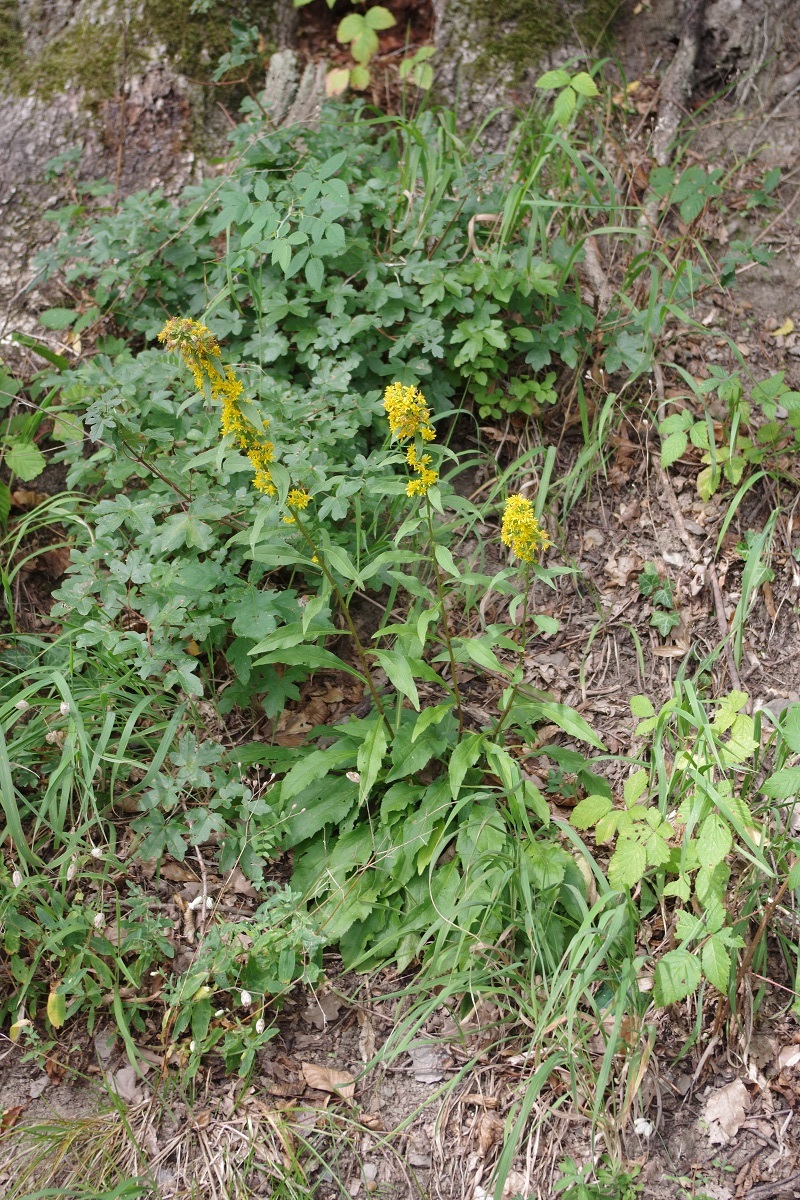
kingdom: Plantae
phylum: Tracheophyta
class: Magnoliopsida
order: Asterales
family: Asteraceae
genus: Solidago
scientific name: Solidago virgaurea
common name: Goldenrod
